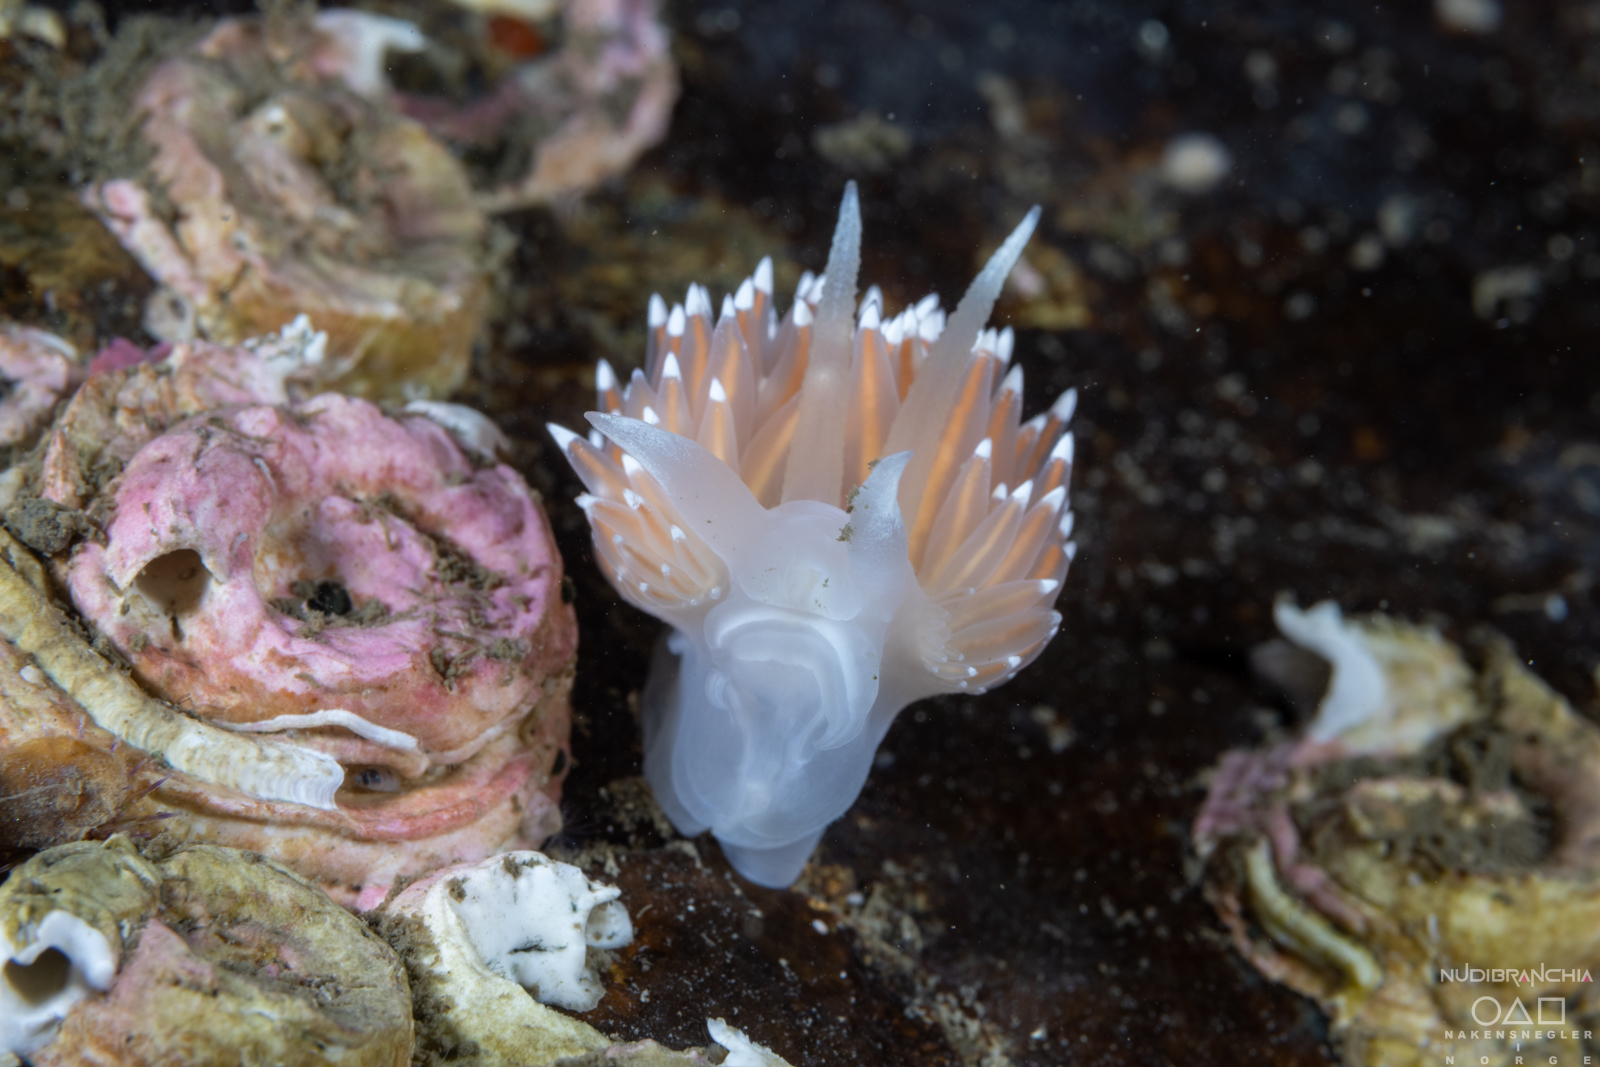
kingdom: Animalia
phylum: Mollusca
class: Gastropoda
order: Nudibranchia
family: Coryphellidae
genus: Coryphella
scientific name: Coryphella nobilis
